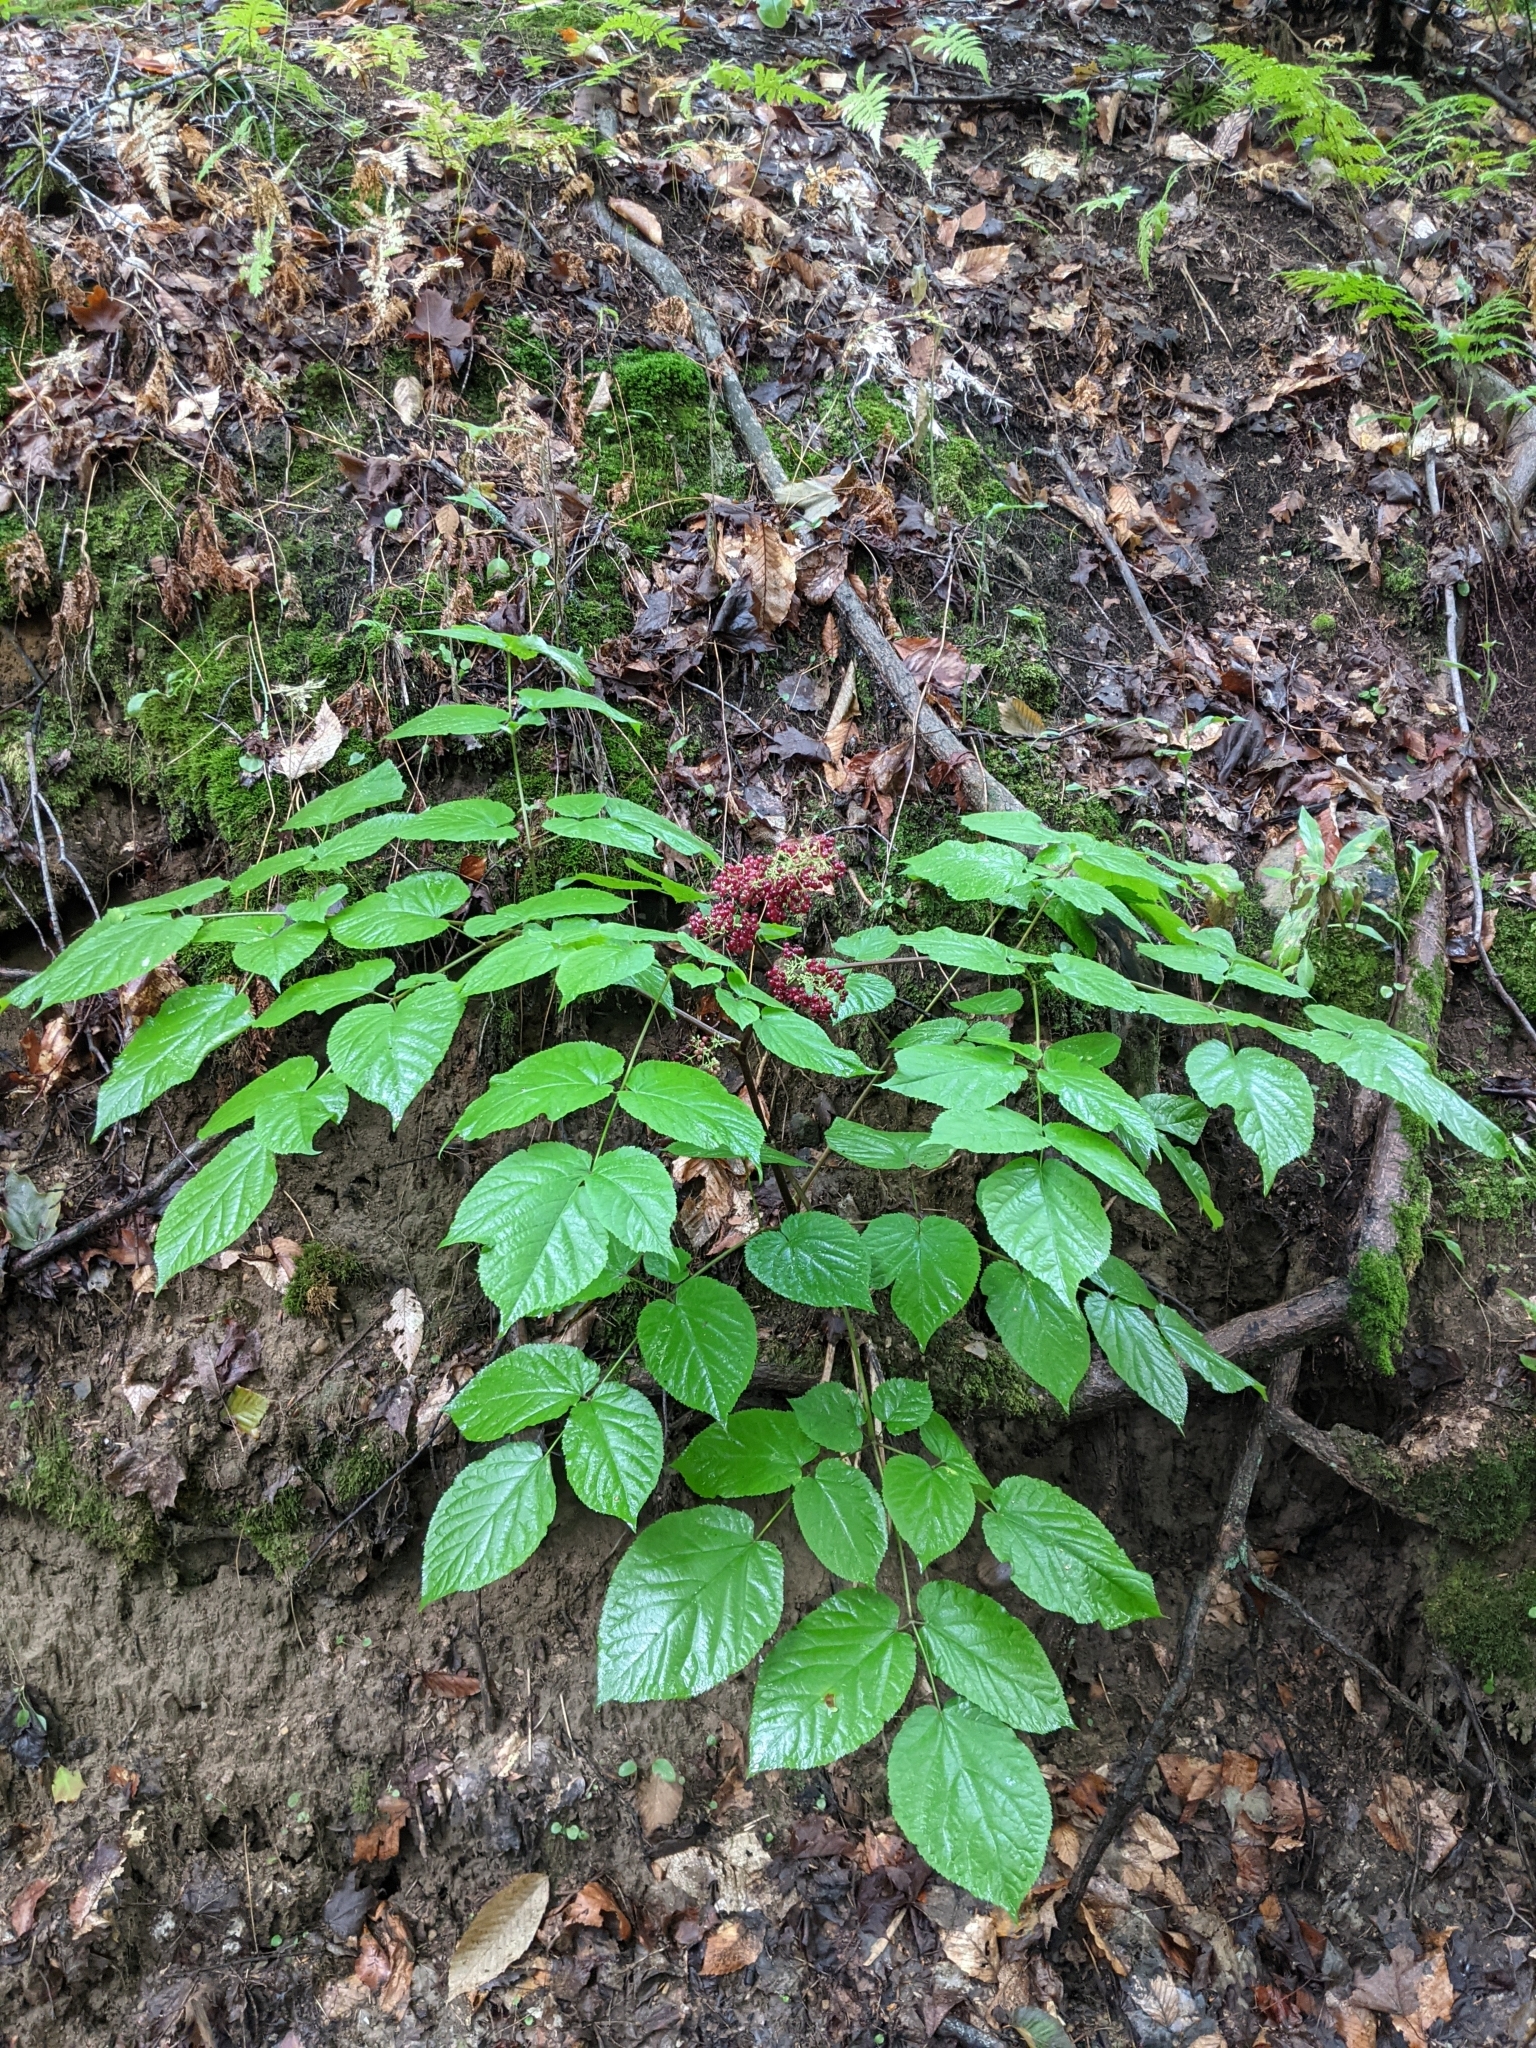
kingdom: Plantae
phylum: Tracheophyta
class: Magnoliopsida
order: Apiales
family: Araliaceae
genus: Aralia
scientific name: Aralia racemosa
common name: American-spikenard
